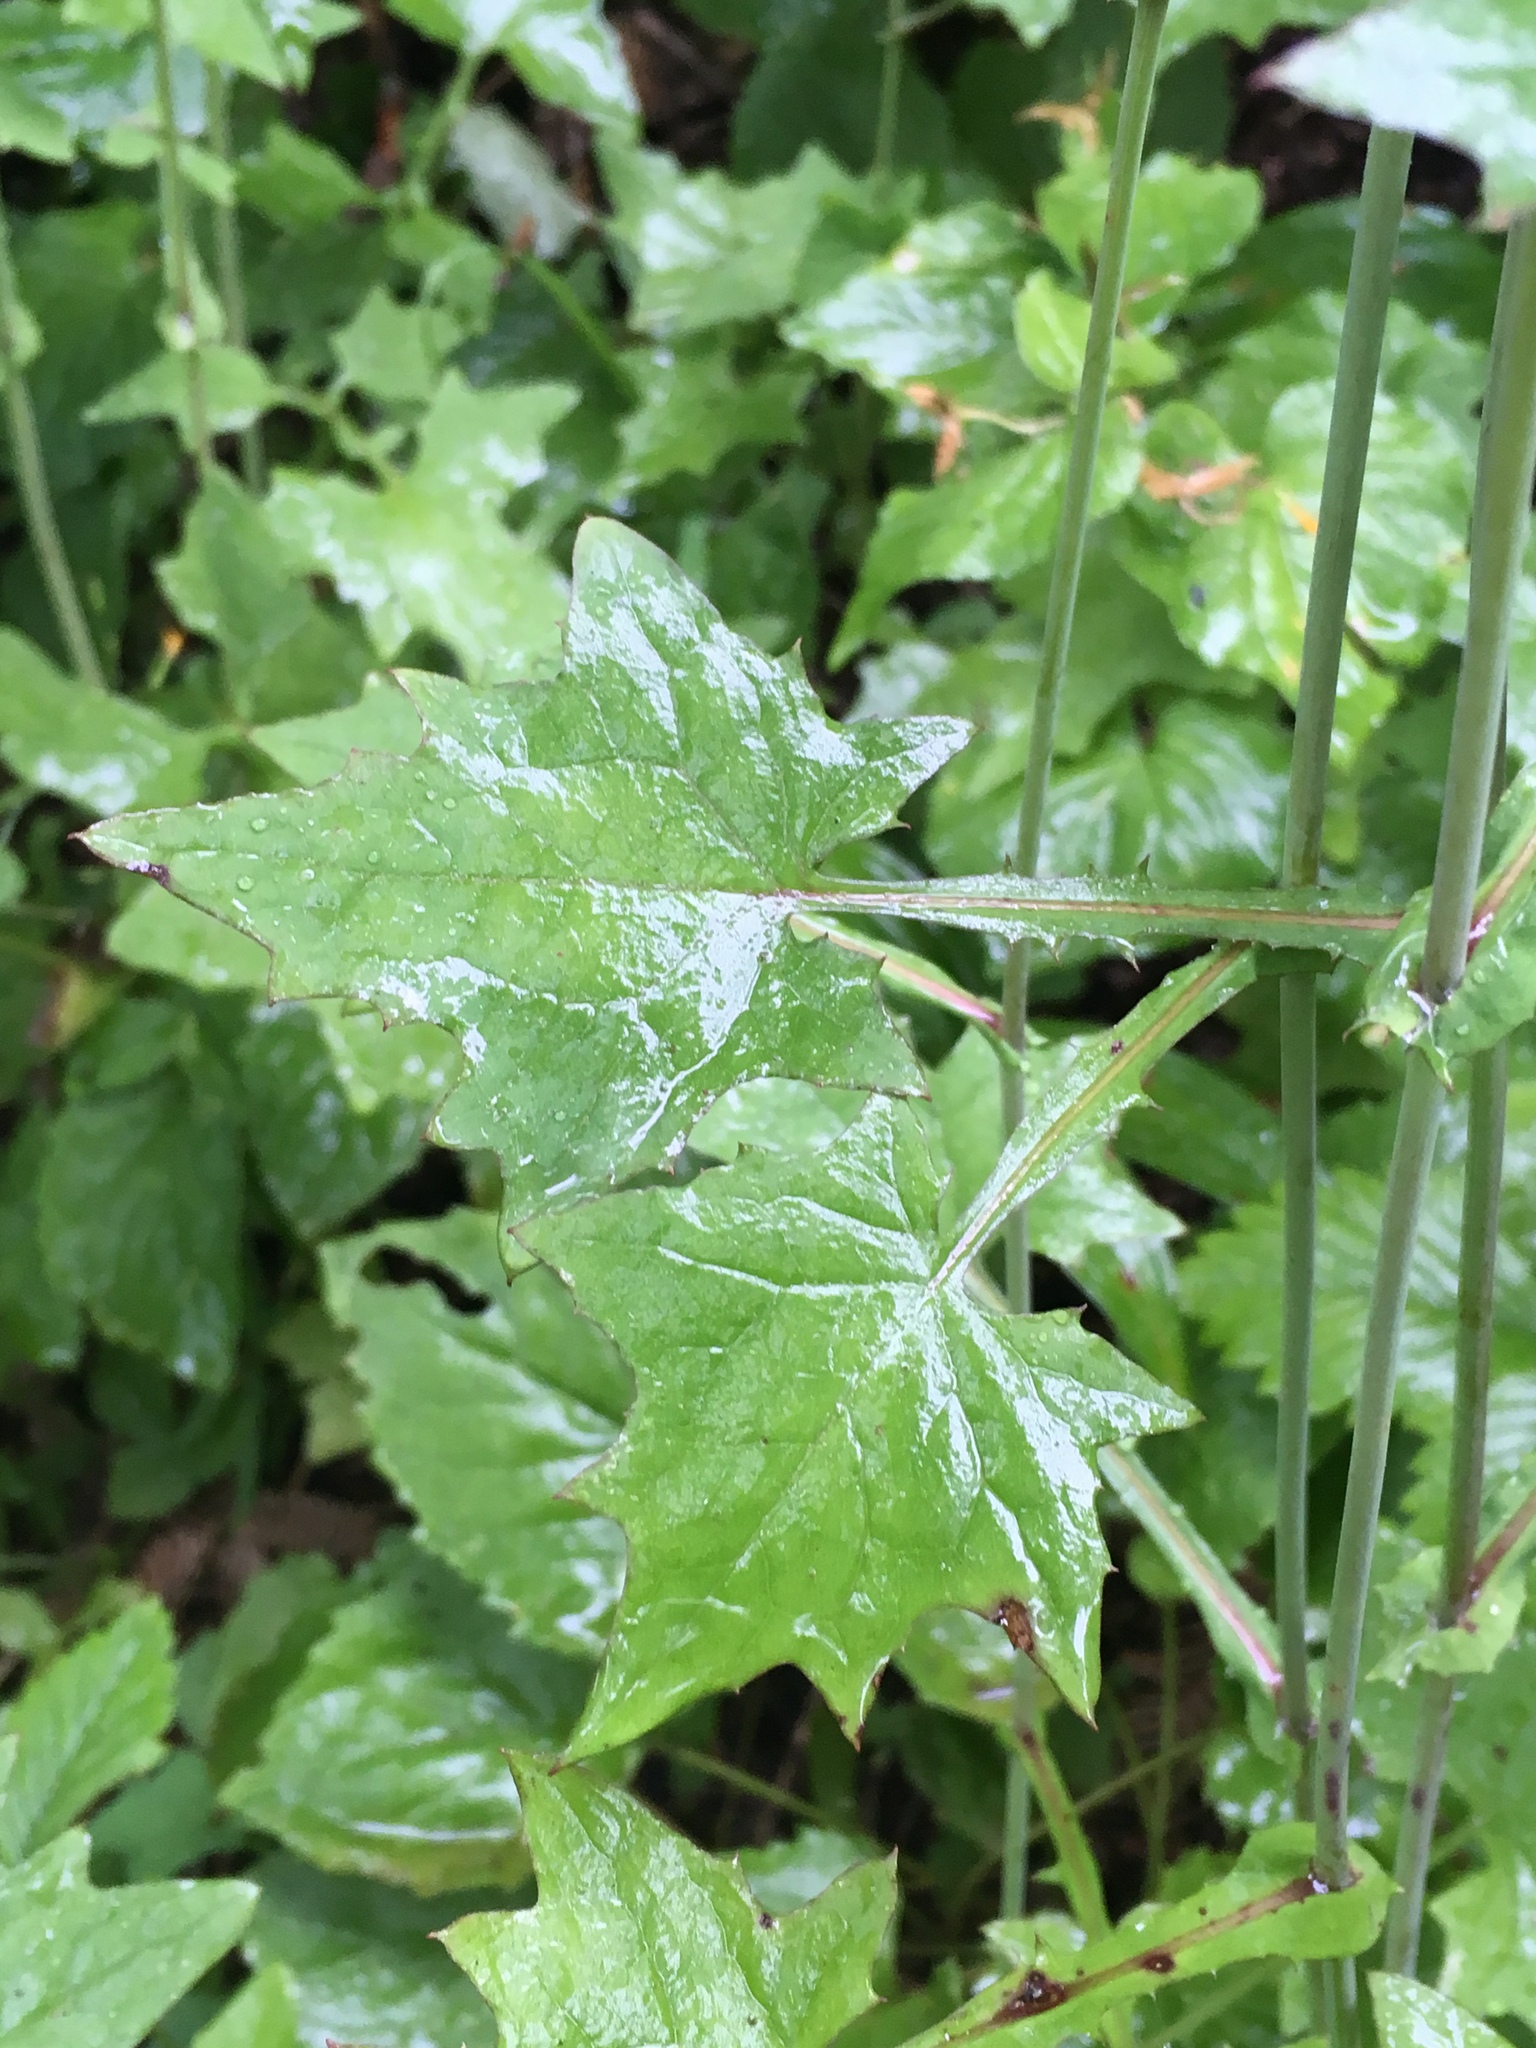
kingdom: Plantae
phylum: Tracheophyta
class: Magnoliopsida
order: Asterales
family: Asteraceae
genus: Mycelis
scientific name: Mycelis muralis
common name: Wall lettuce
